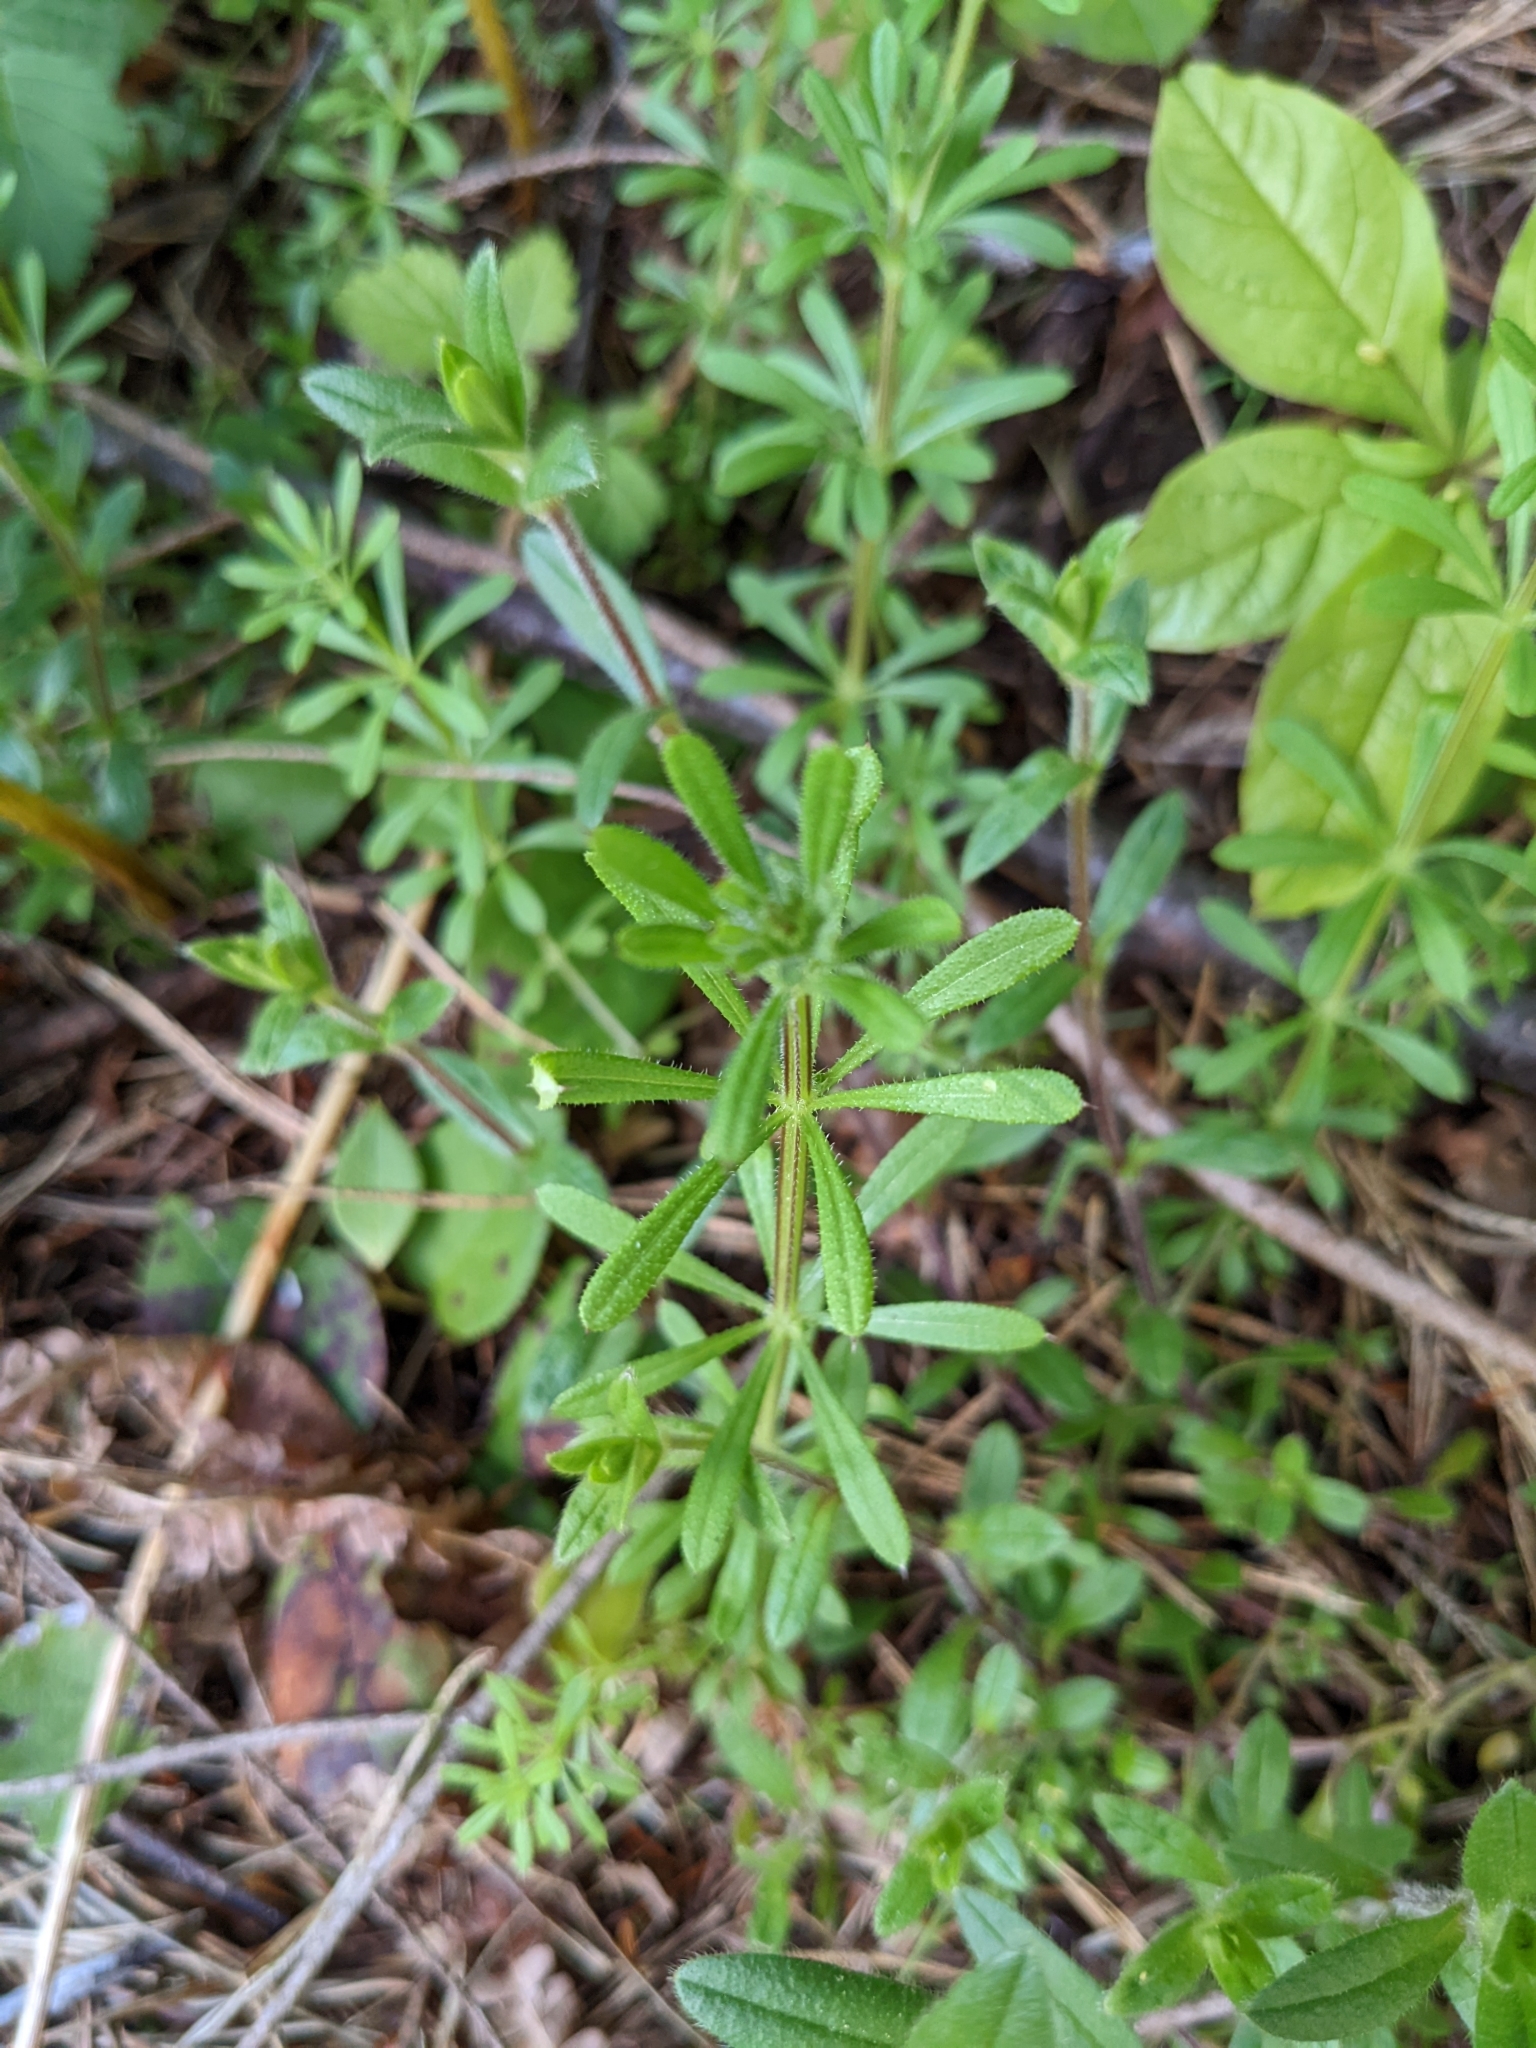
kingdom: Plantae
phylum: Tracheophyta
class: Magnoliopsida
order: Gentianales
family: Rubiaceae
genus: Galium
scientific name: Galium aparine
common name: Cleavers
